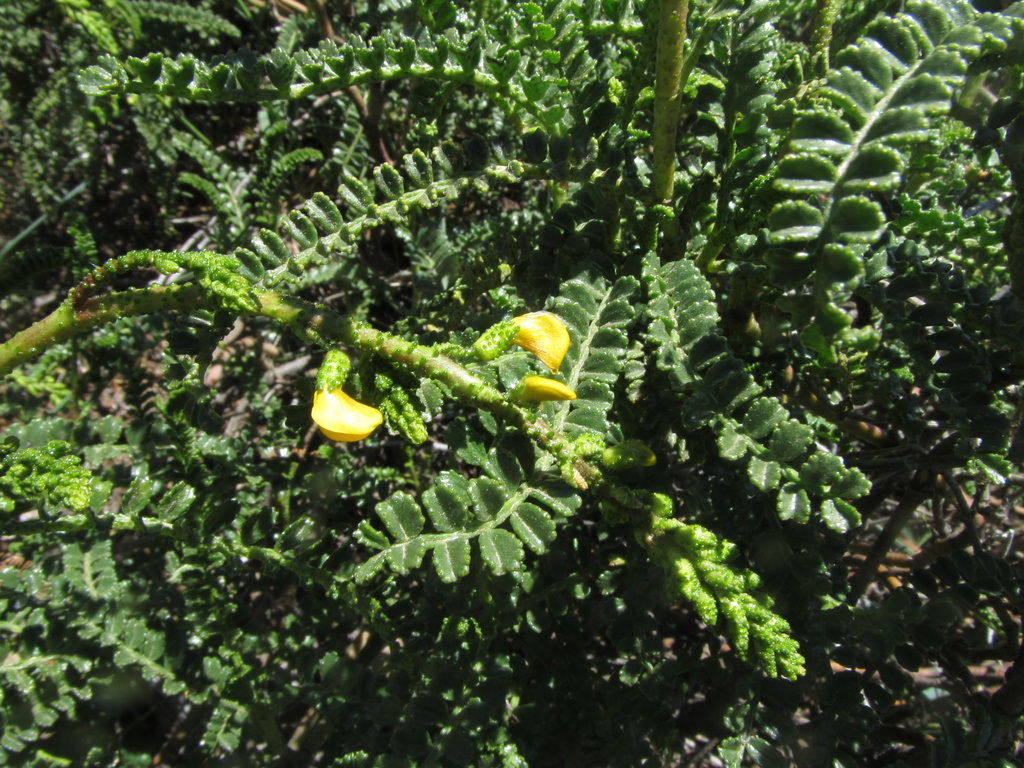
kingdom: Plantae
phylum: Tracheophyta
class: Magnoliopsida
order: Fabales
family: Fabaceae
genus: Adesmia
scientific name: Adesmia boronioides
